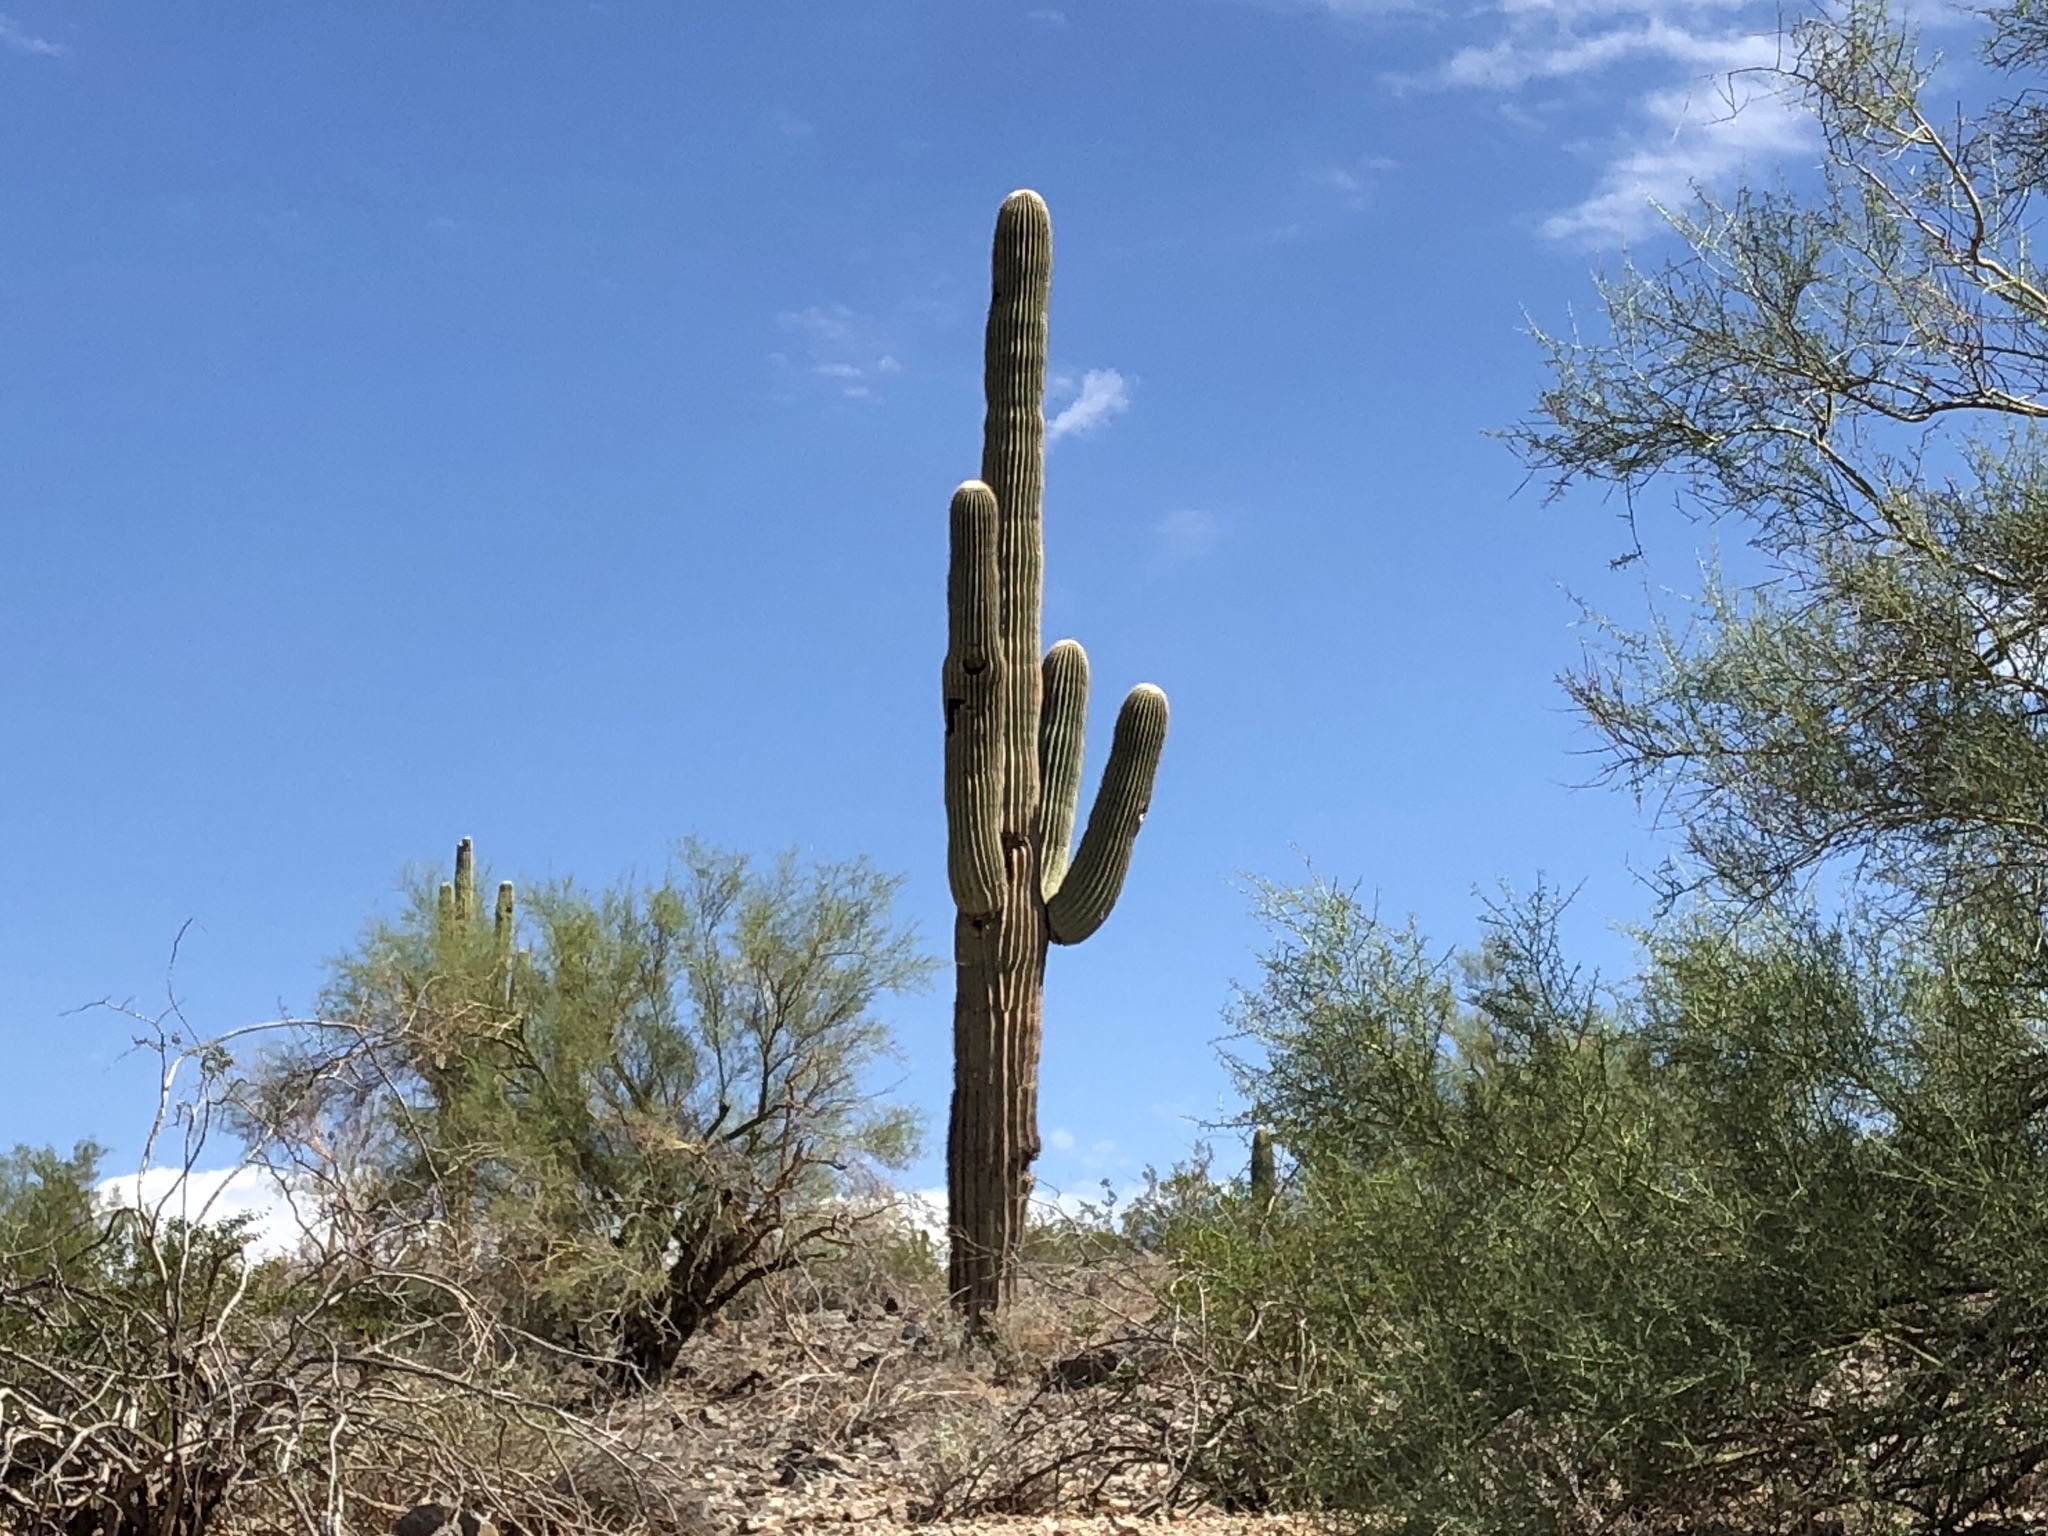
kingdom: Plantae
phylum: Tracheophyta
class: Magnoliopsida
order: Caryophyllales
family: Cactaceae
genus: Carnegiea
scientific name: Carnegiea gigantea
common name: Saguaro
